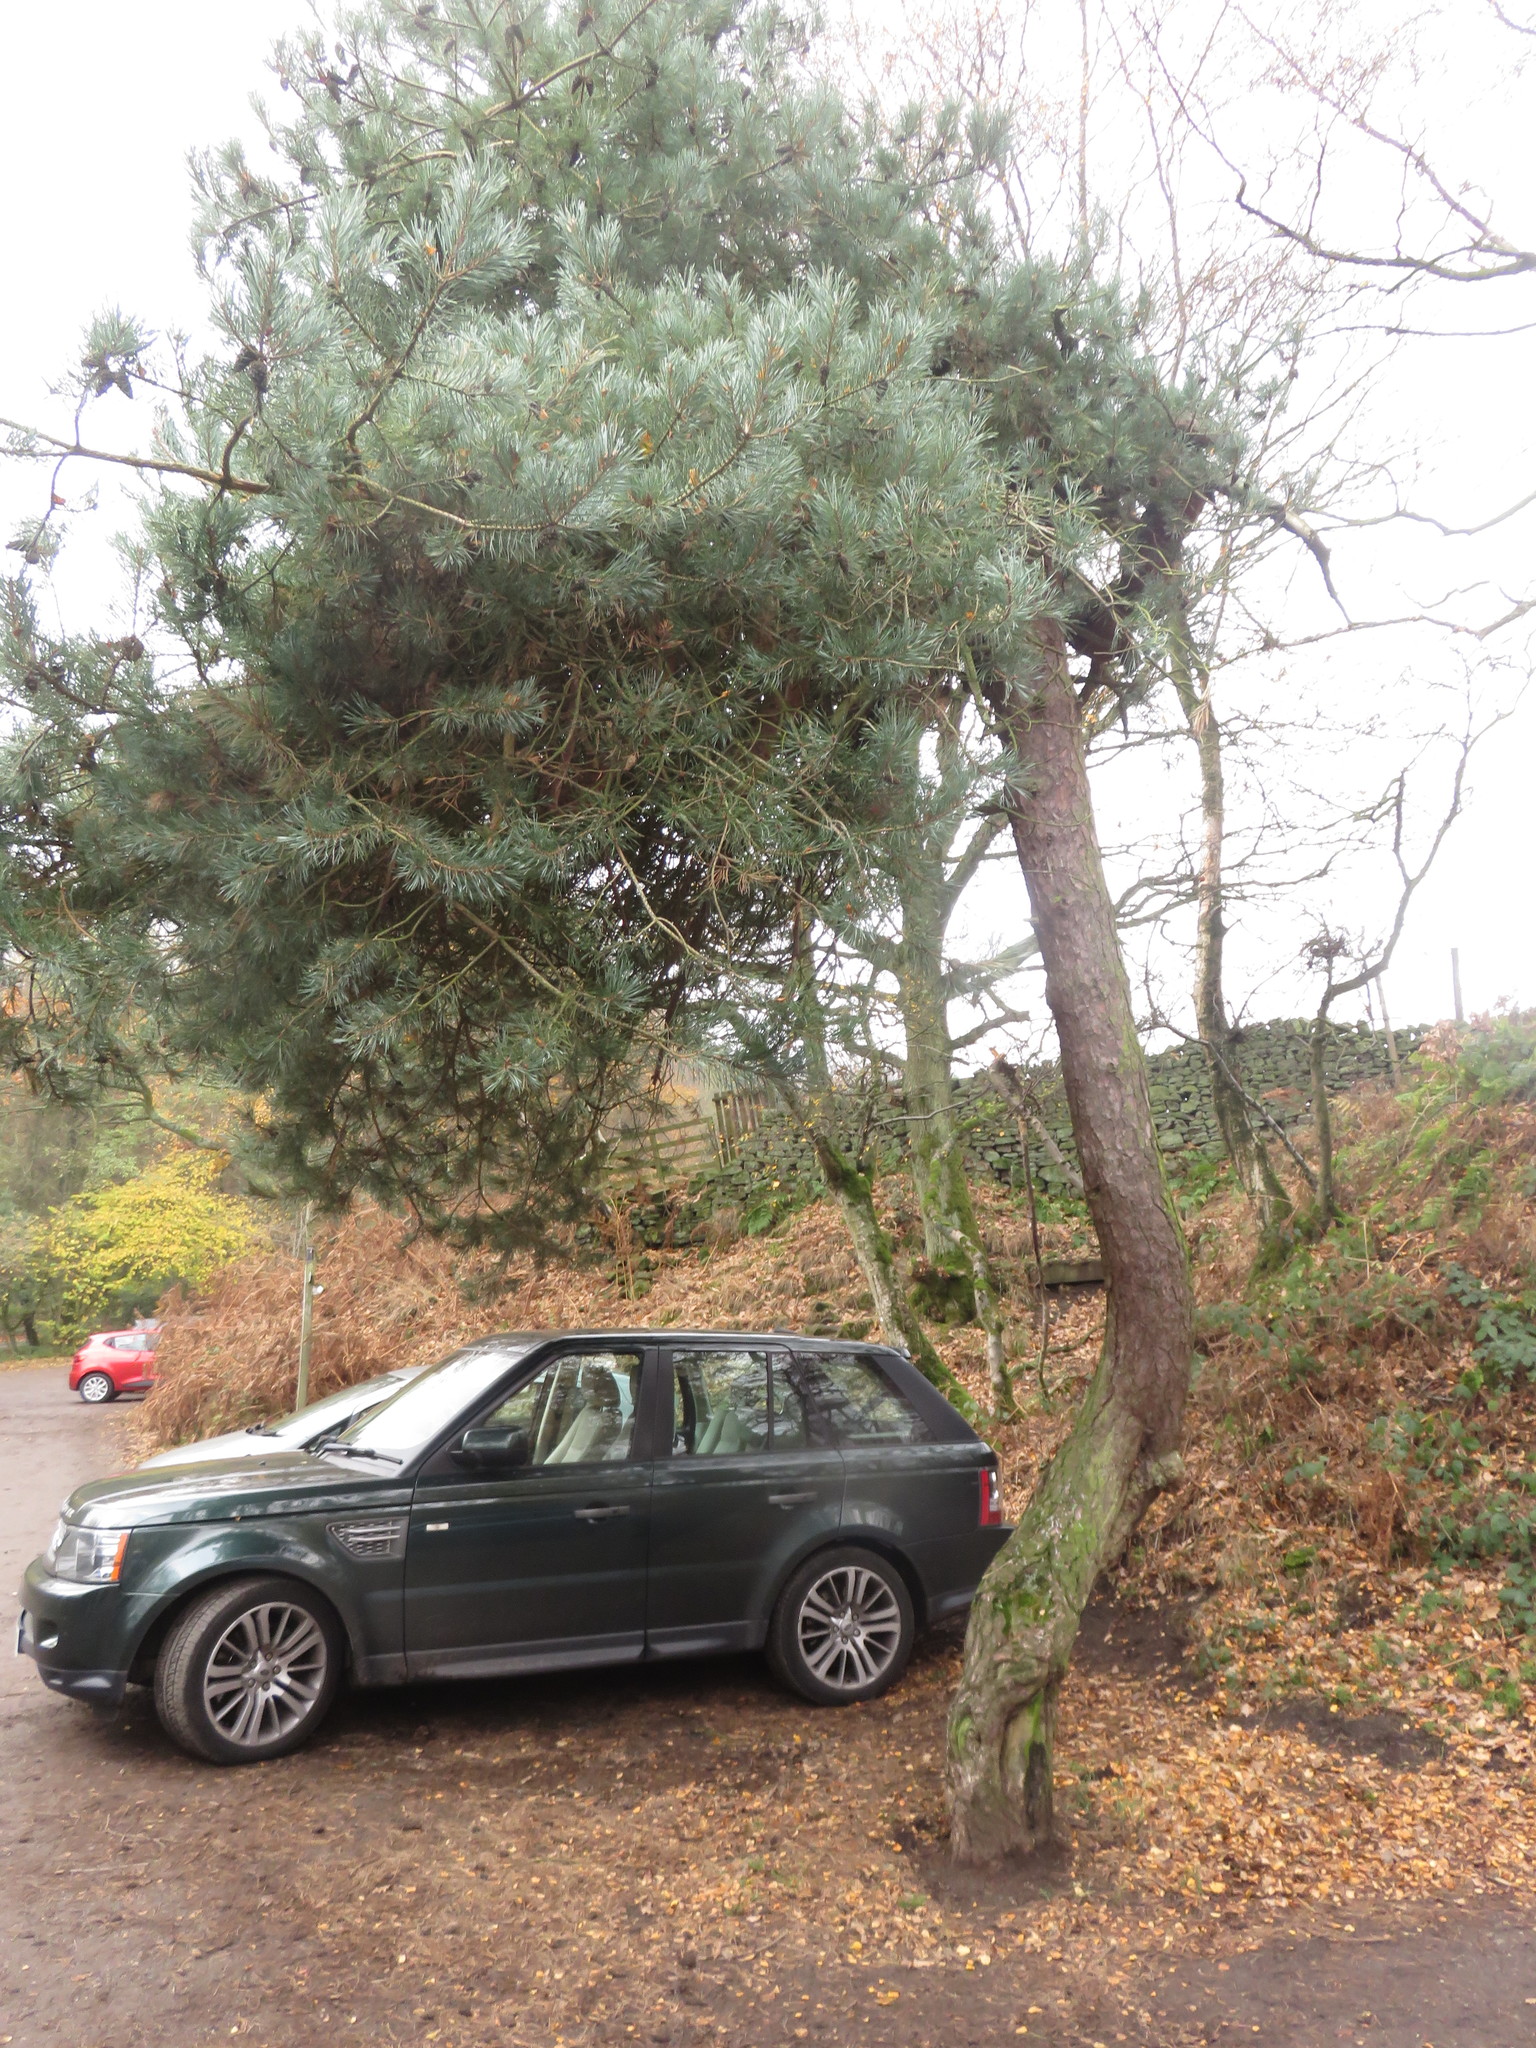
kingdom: Plantae
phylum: Tracheophyta
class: Pinopsida
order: Pinales
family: Pinaceae
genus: Pinus
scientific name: Pinus sylvestris
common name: Scots pine
